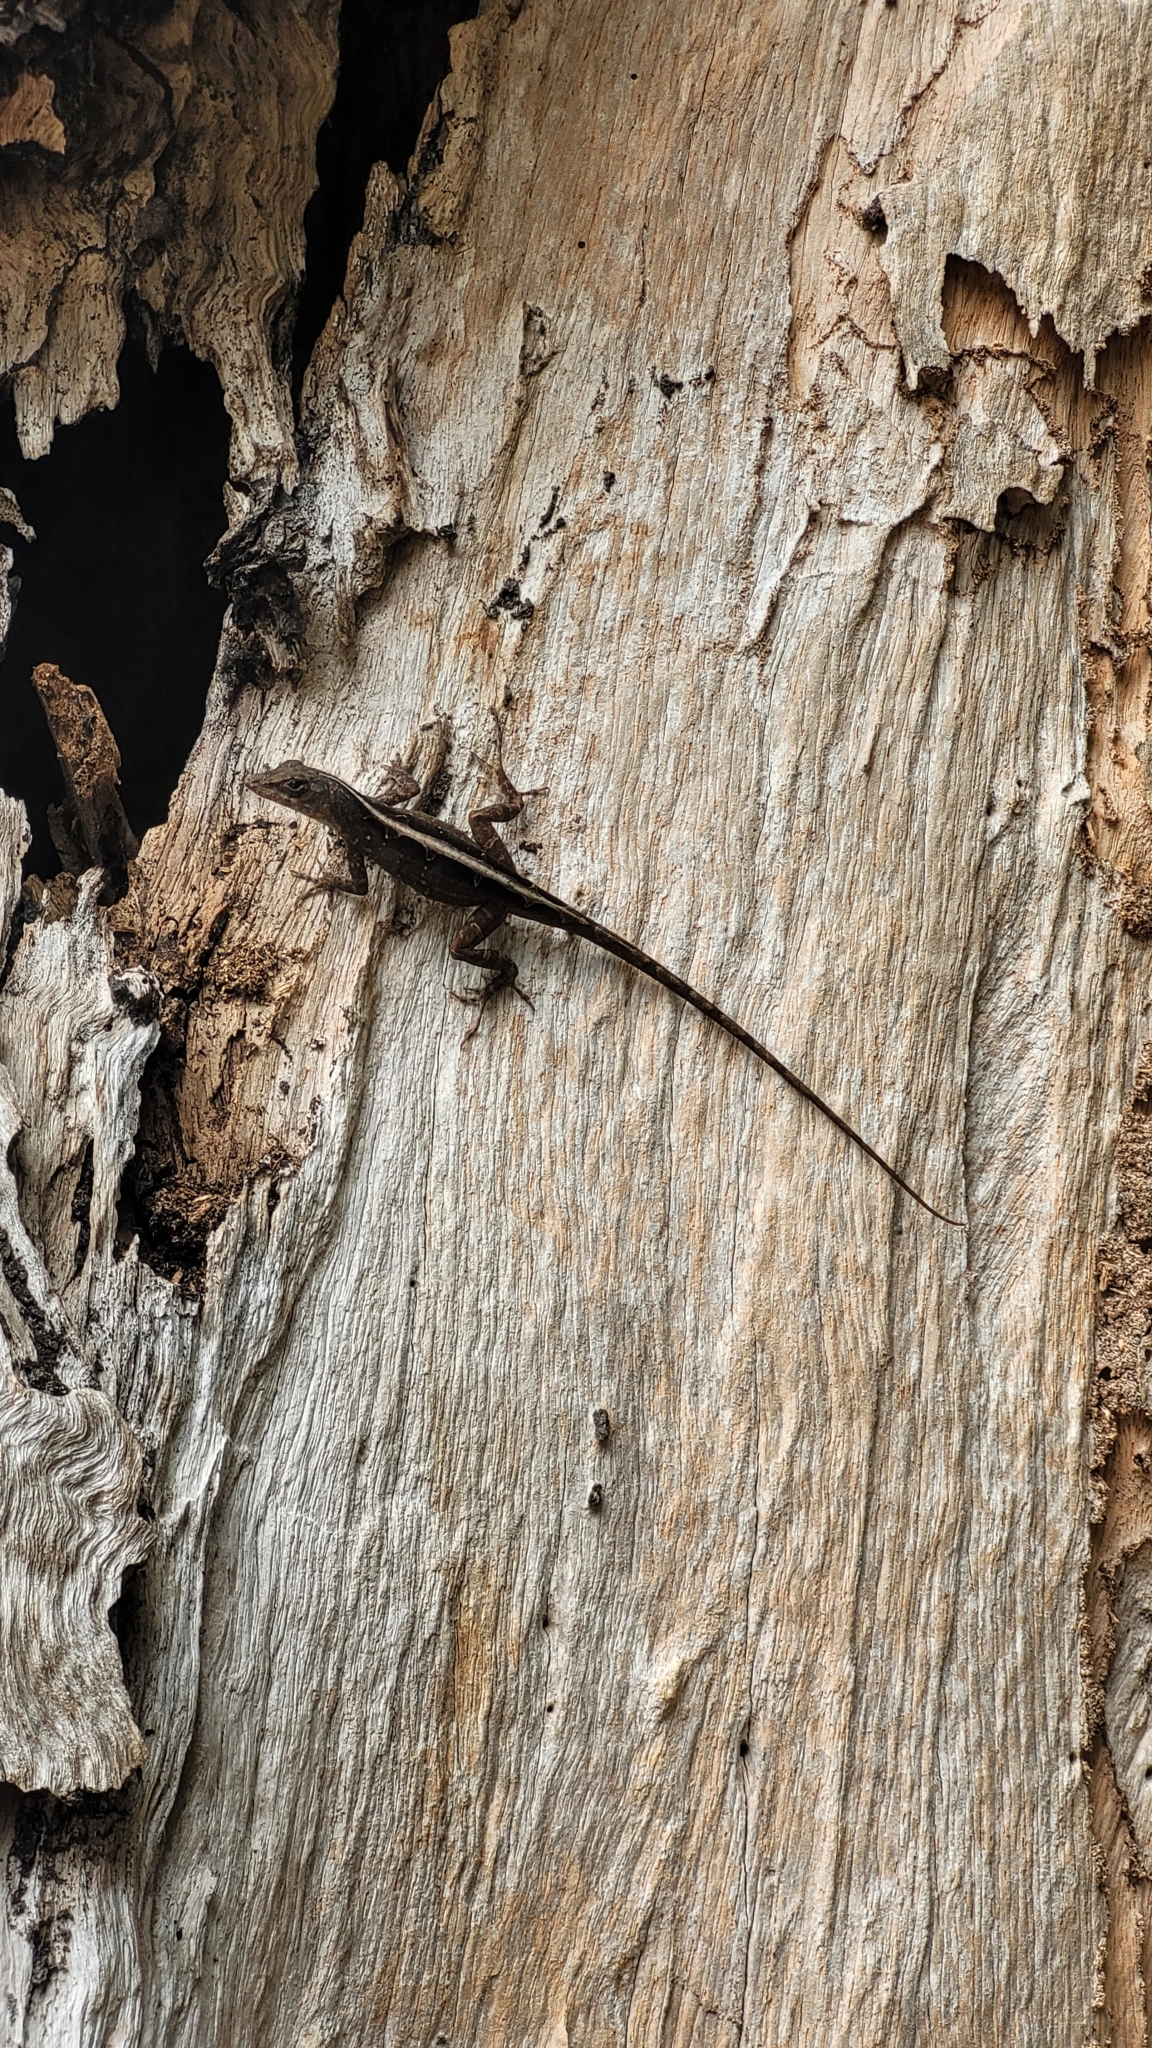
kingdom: Animalia
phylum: Chordata
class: Squamata
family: Dactyloidae
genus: Anolis
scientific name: Anolis sagrei
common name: Brown anole
